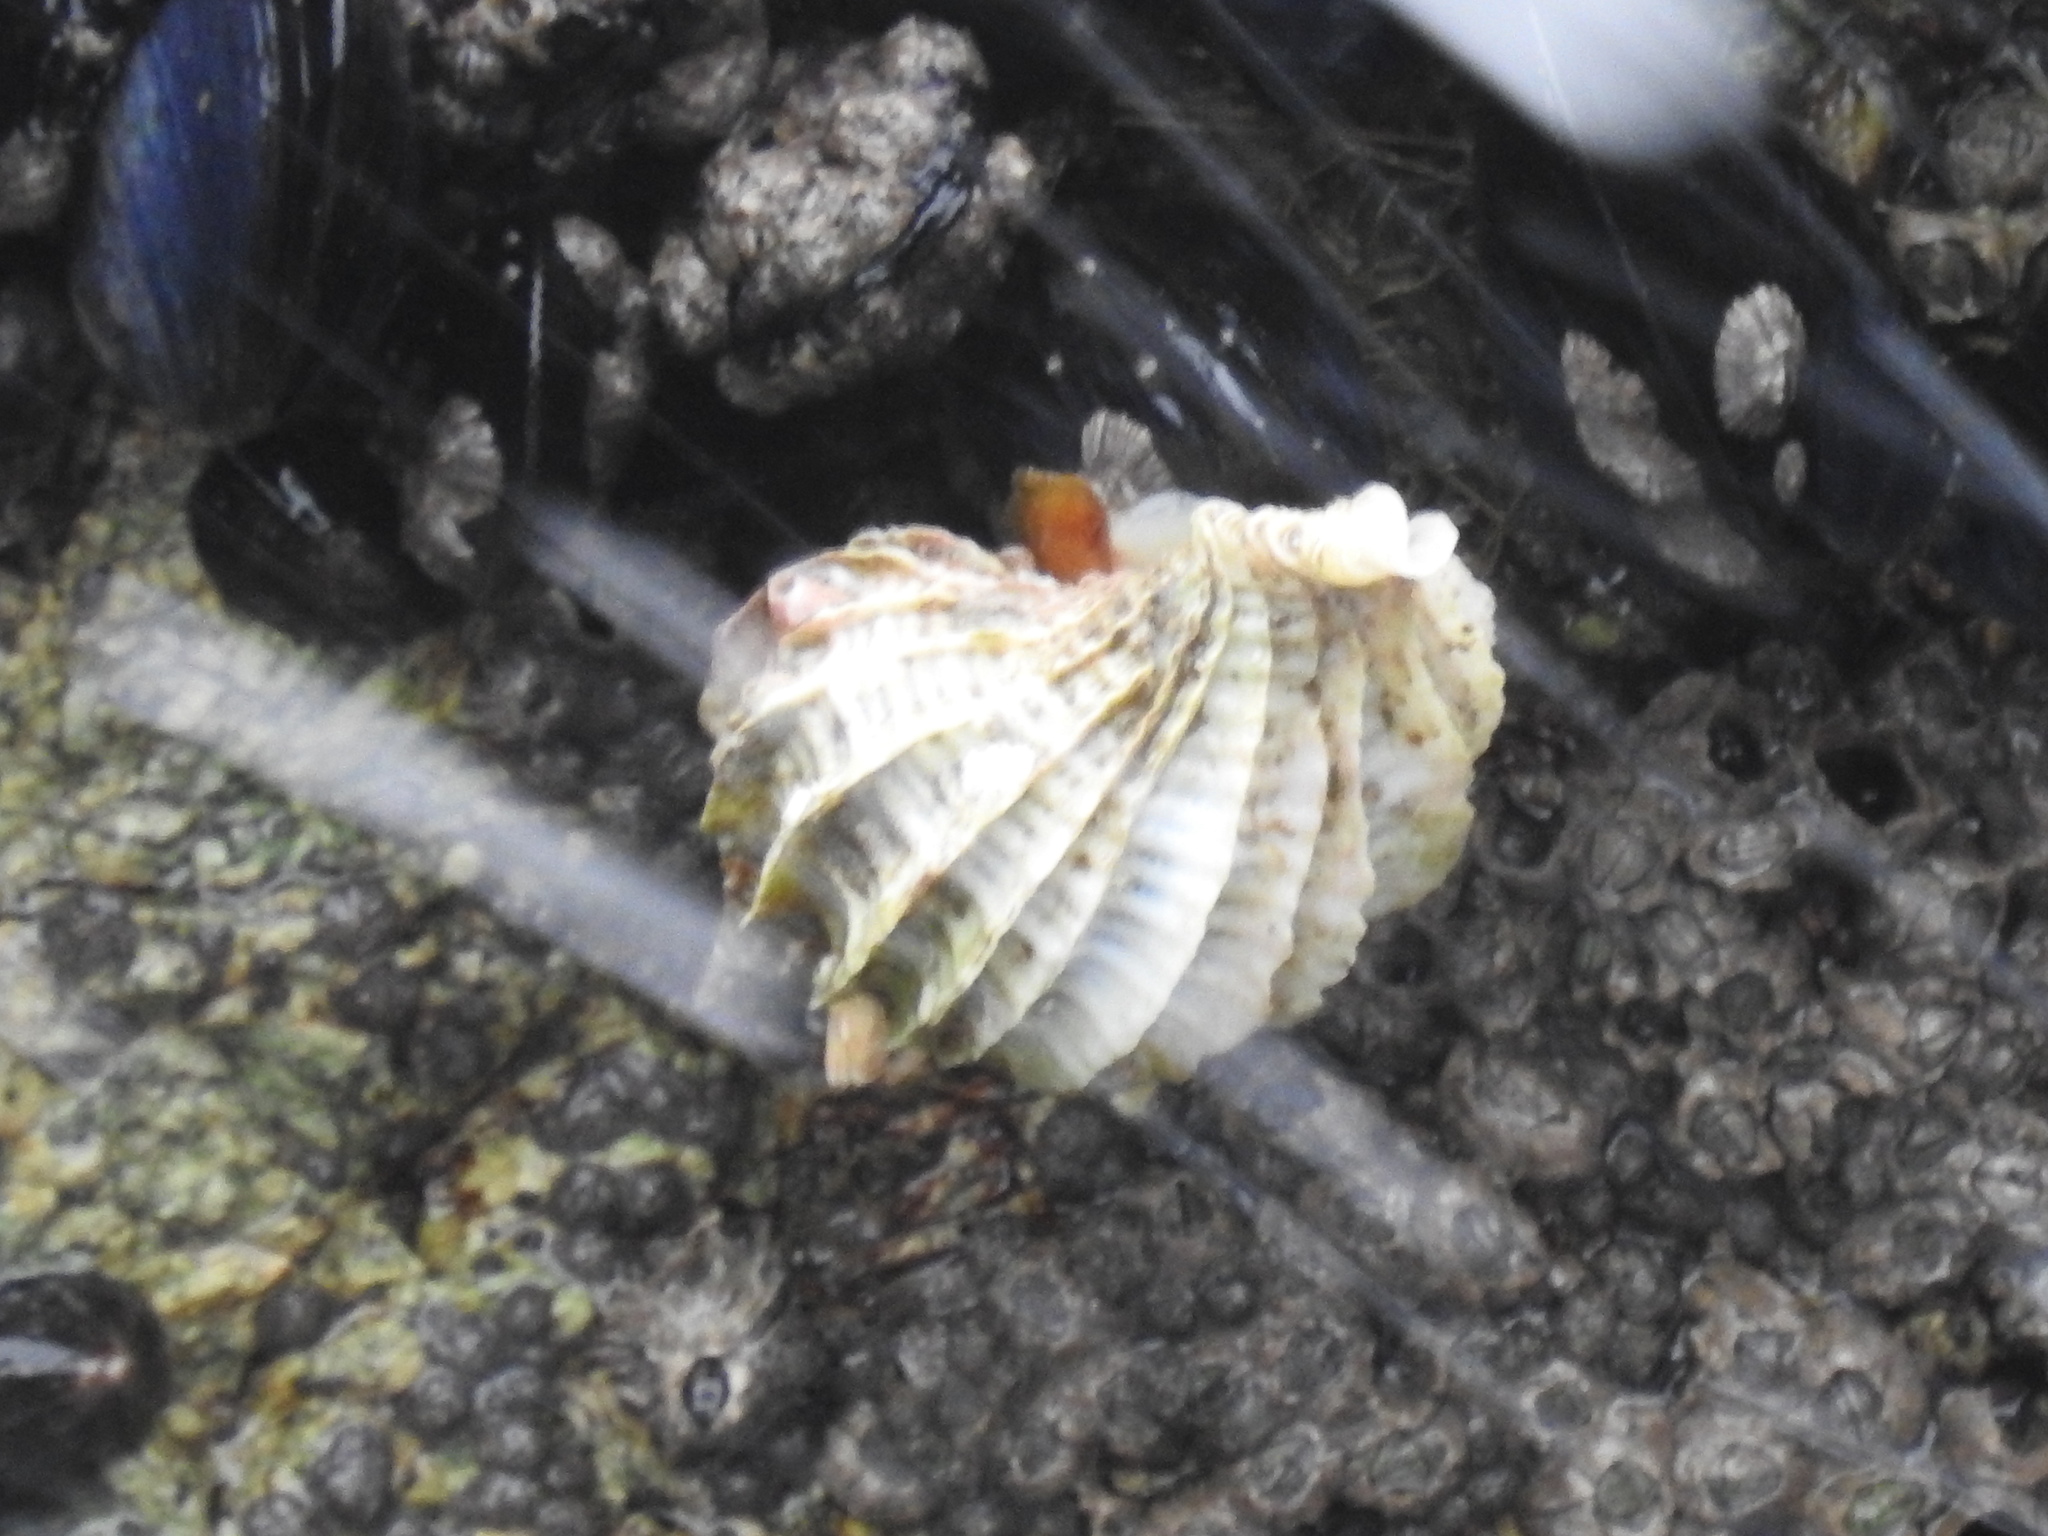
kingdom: Animalia
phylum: Mollusca
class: Gastropoda
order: Neogastropoda
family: Muricidae
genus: Trophon
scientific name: Trophon geversianus
